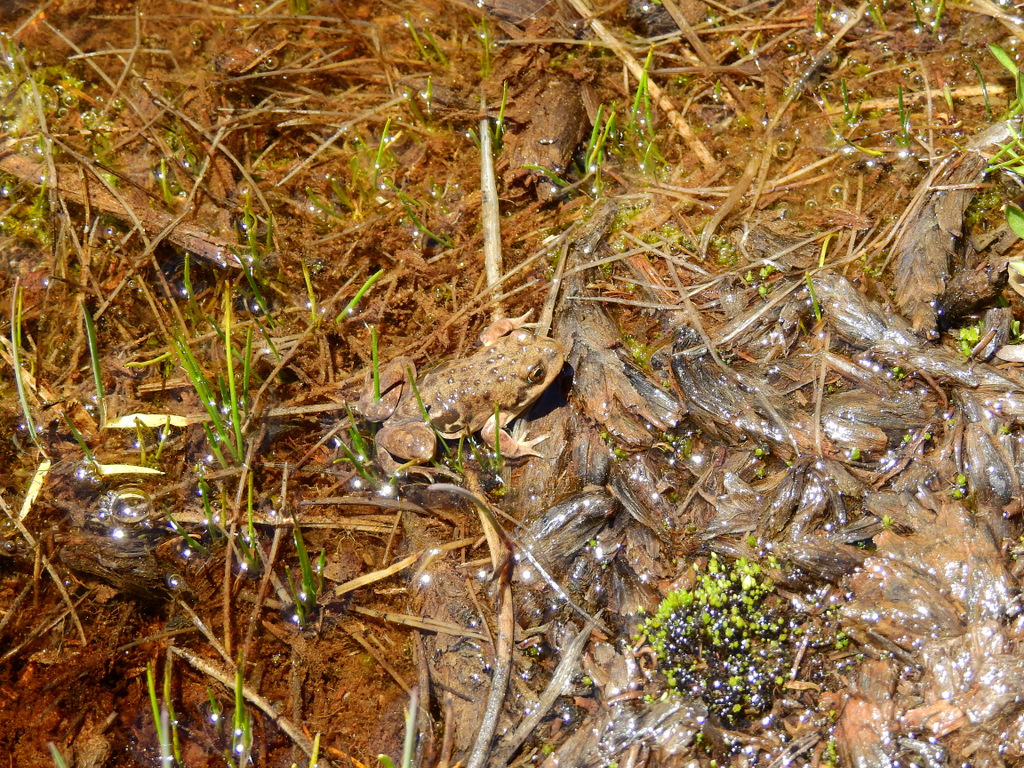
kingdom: Animalia
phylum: Chordata
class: Amphibia
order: Anura
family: Leptodactylidae
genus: Pleurodema
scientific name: Pleurodema bufoninum
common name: Large four-eyed frog
